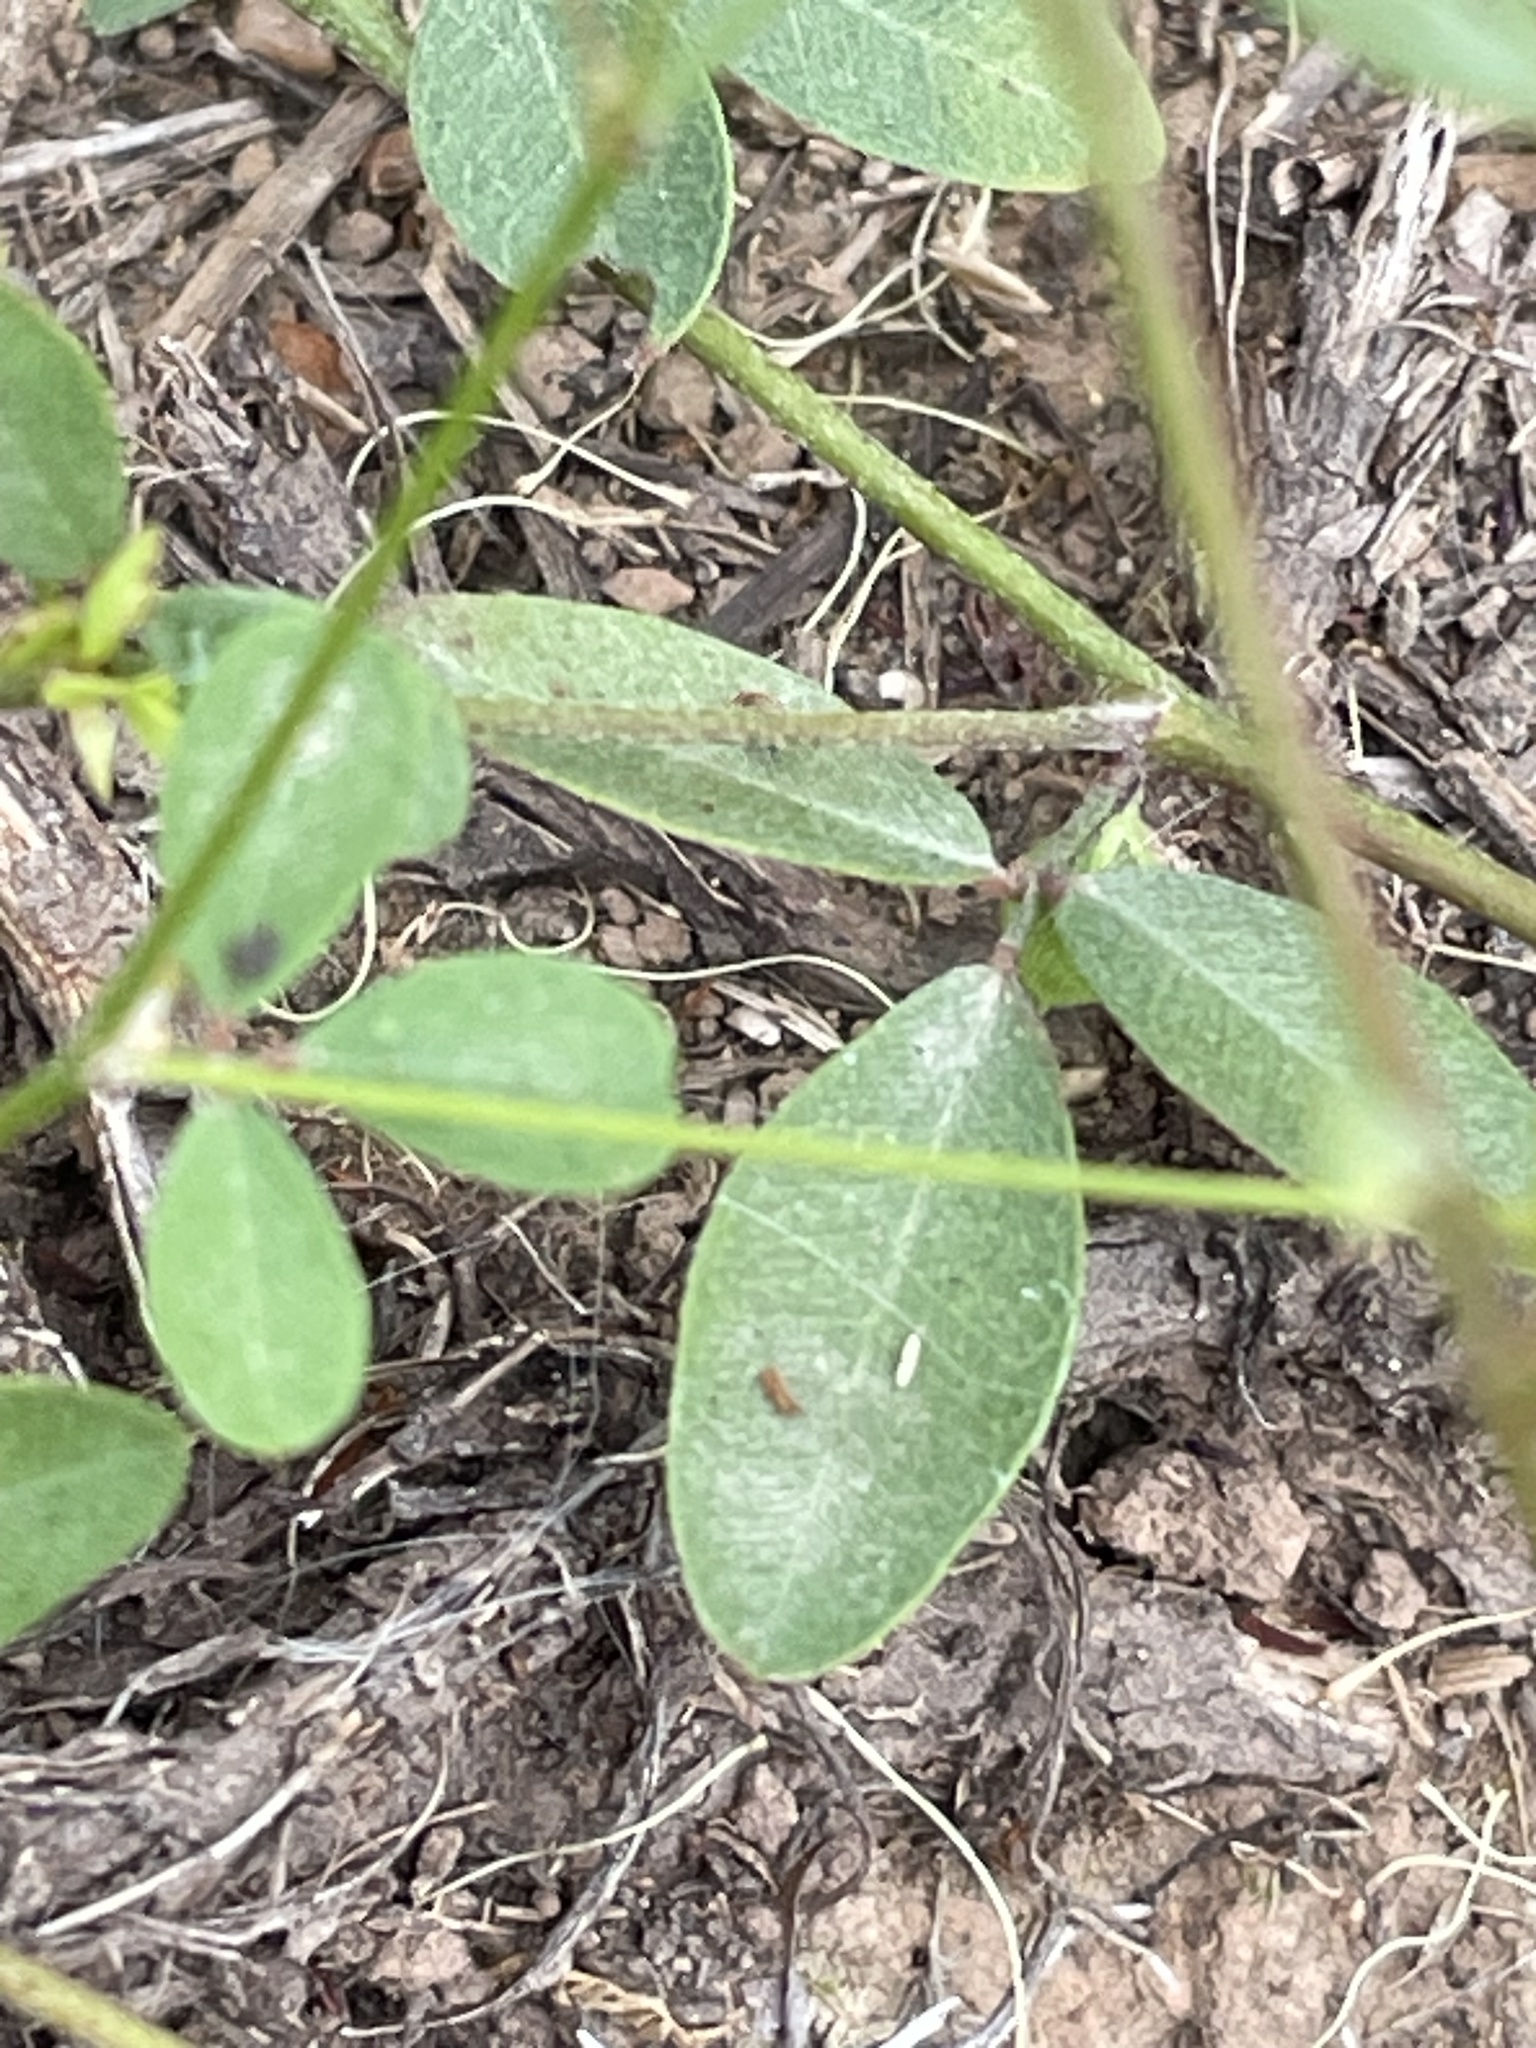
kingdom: Plantae
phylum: Tracheophyta
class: Magnoliopsida
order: Fabales
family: Fabaceae
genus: Lespedeza
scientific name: Lespedeza repens
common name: Creeping bush-clover
